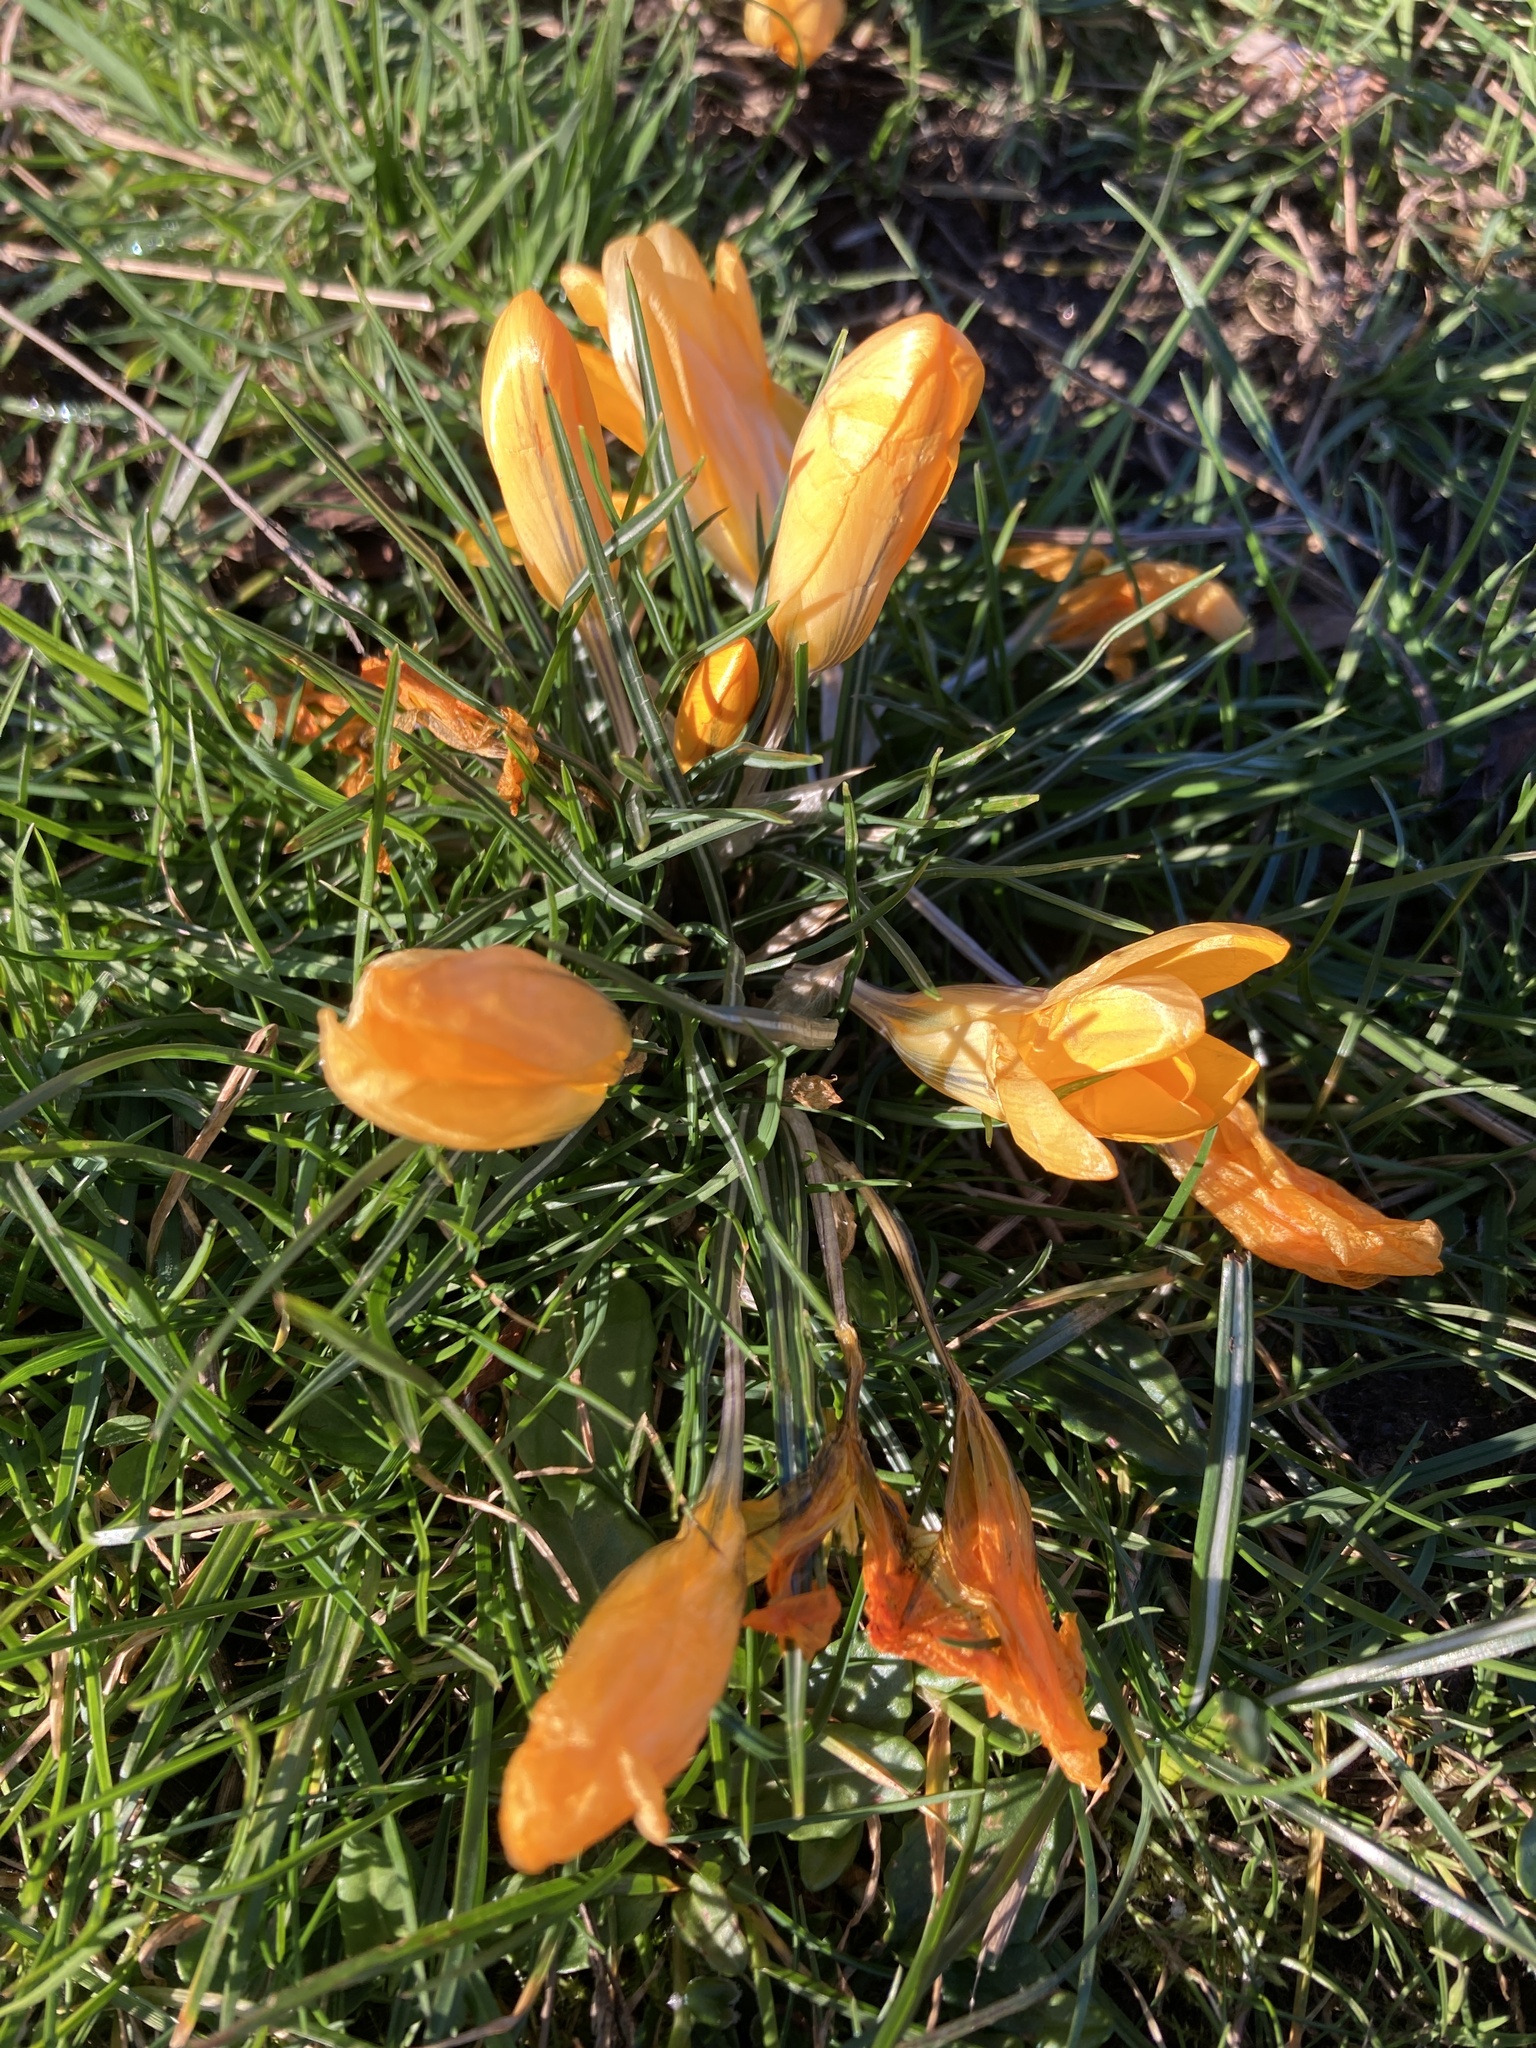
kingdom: Plantae
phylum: Tracheophyta
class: Liliopsida
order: Asparagales
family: Iridaceae
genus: Crocus
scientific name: Crocus luteus
